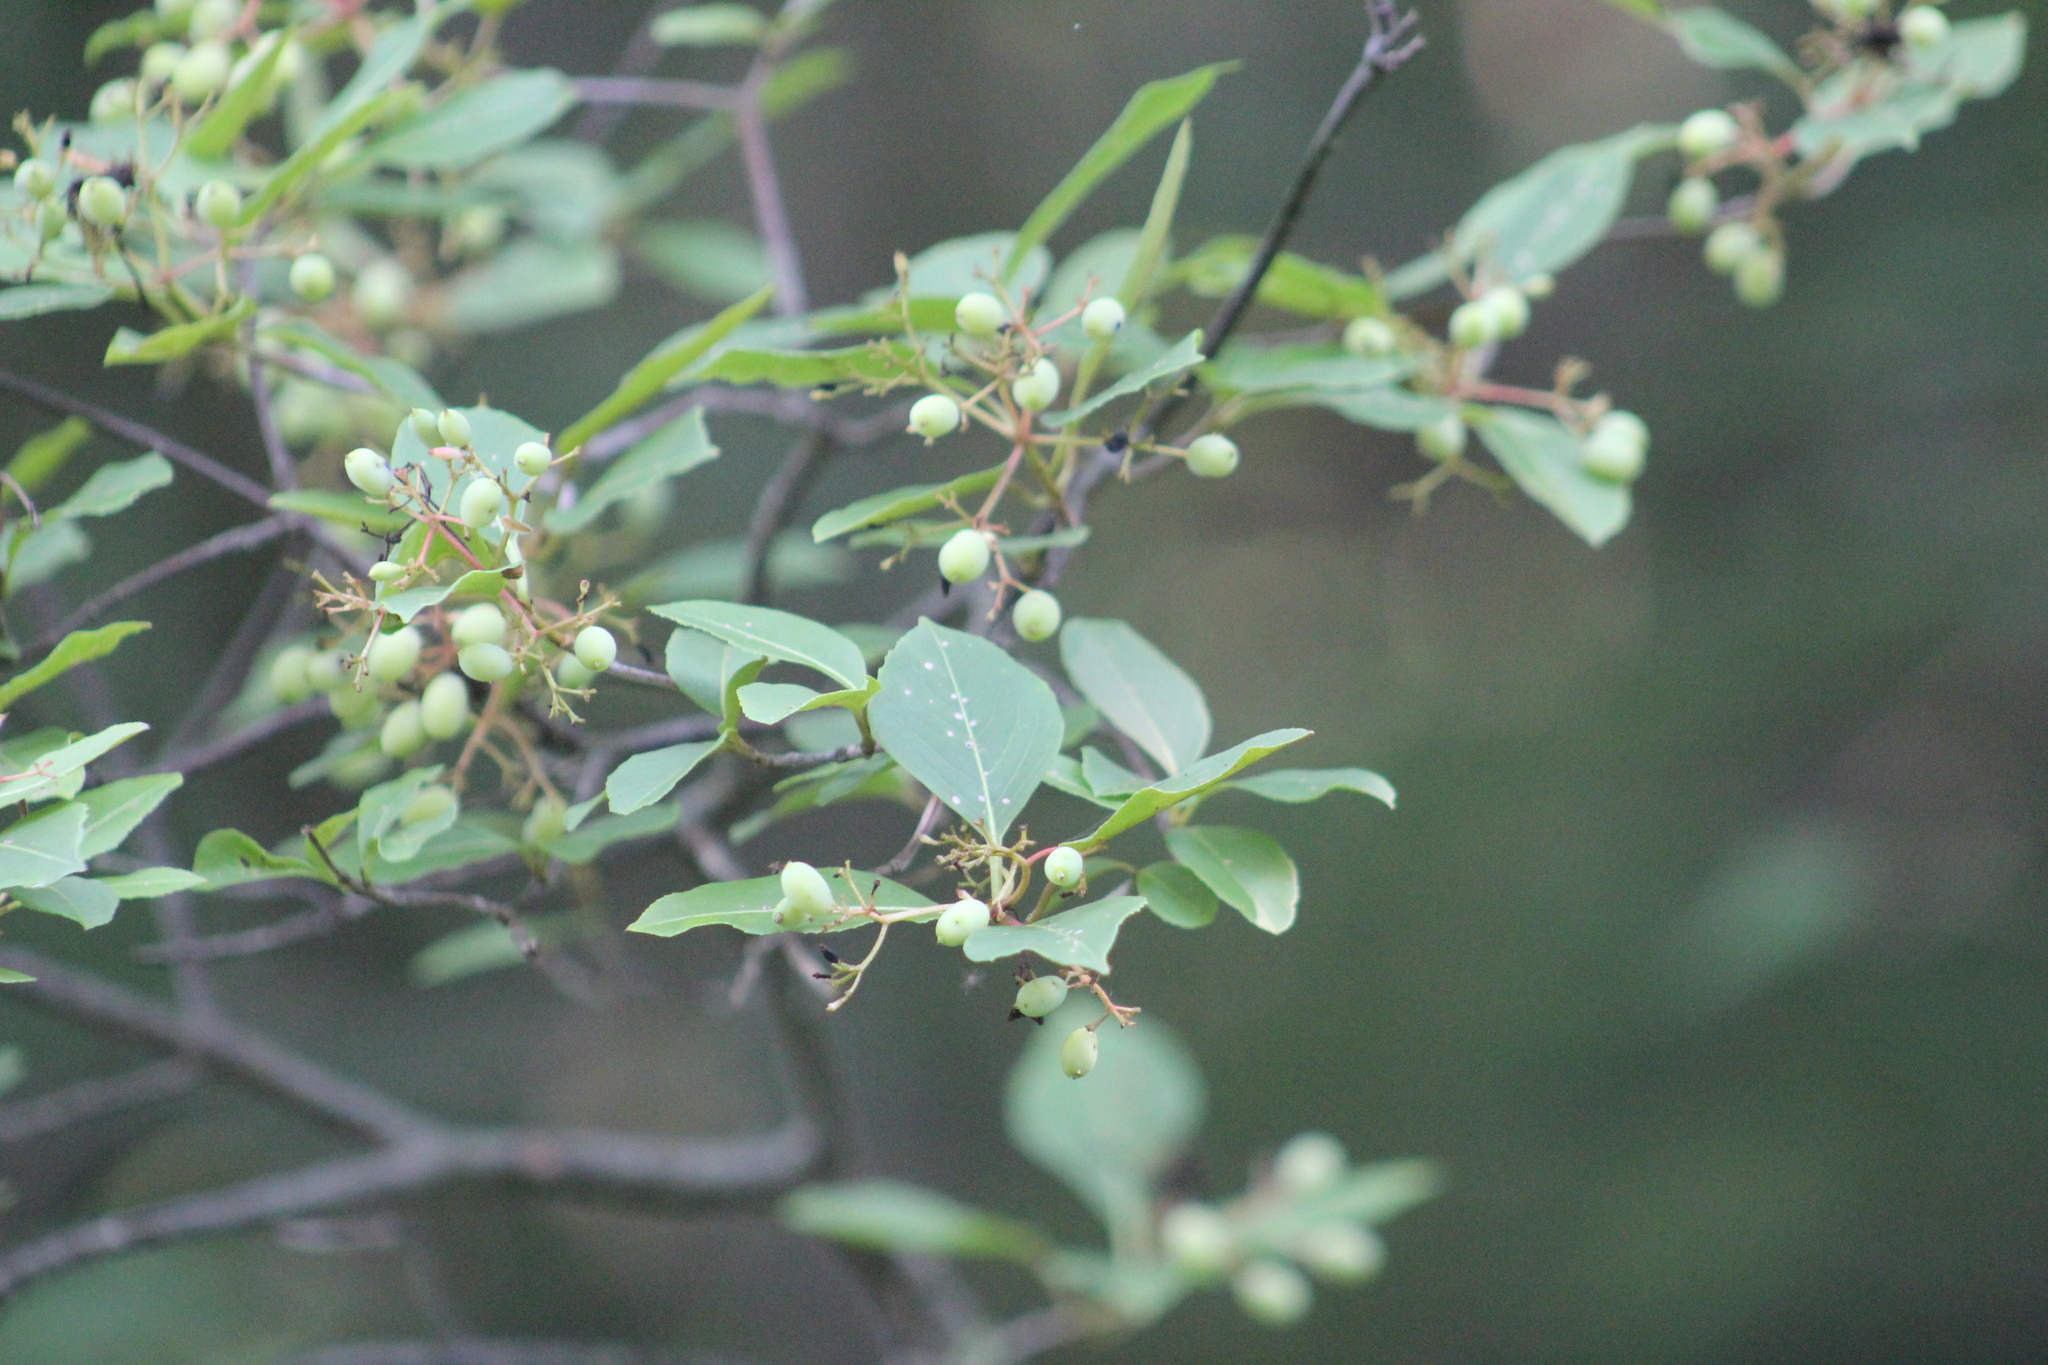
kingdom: Plantae
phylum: Tracheophyta
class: Magnoliopsida
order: Dipsacales
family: Viburnaceae
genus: Viburnum
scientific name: Viburnum cassinoides
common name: Swamp haw
